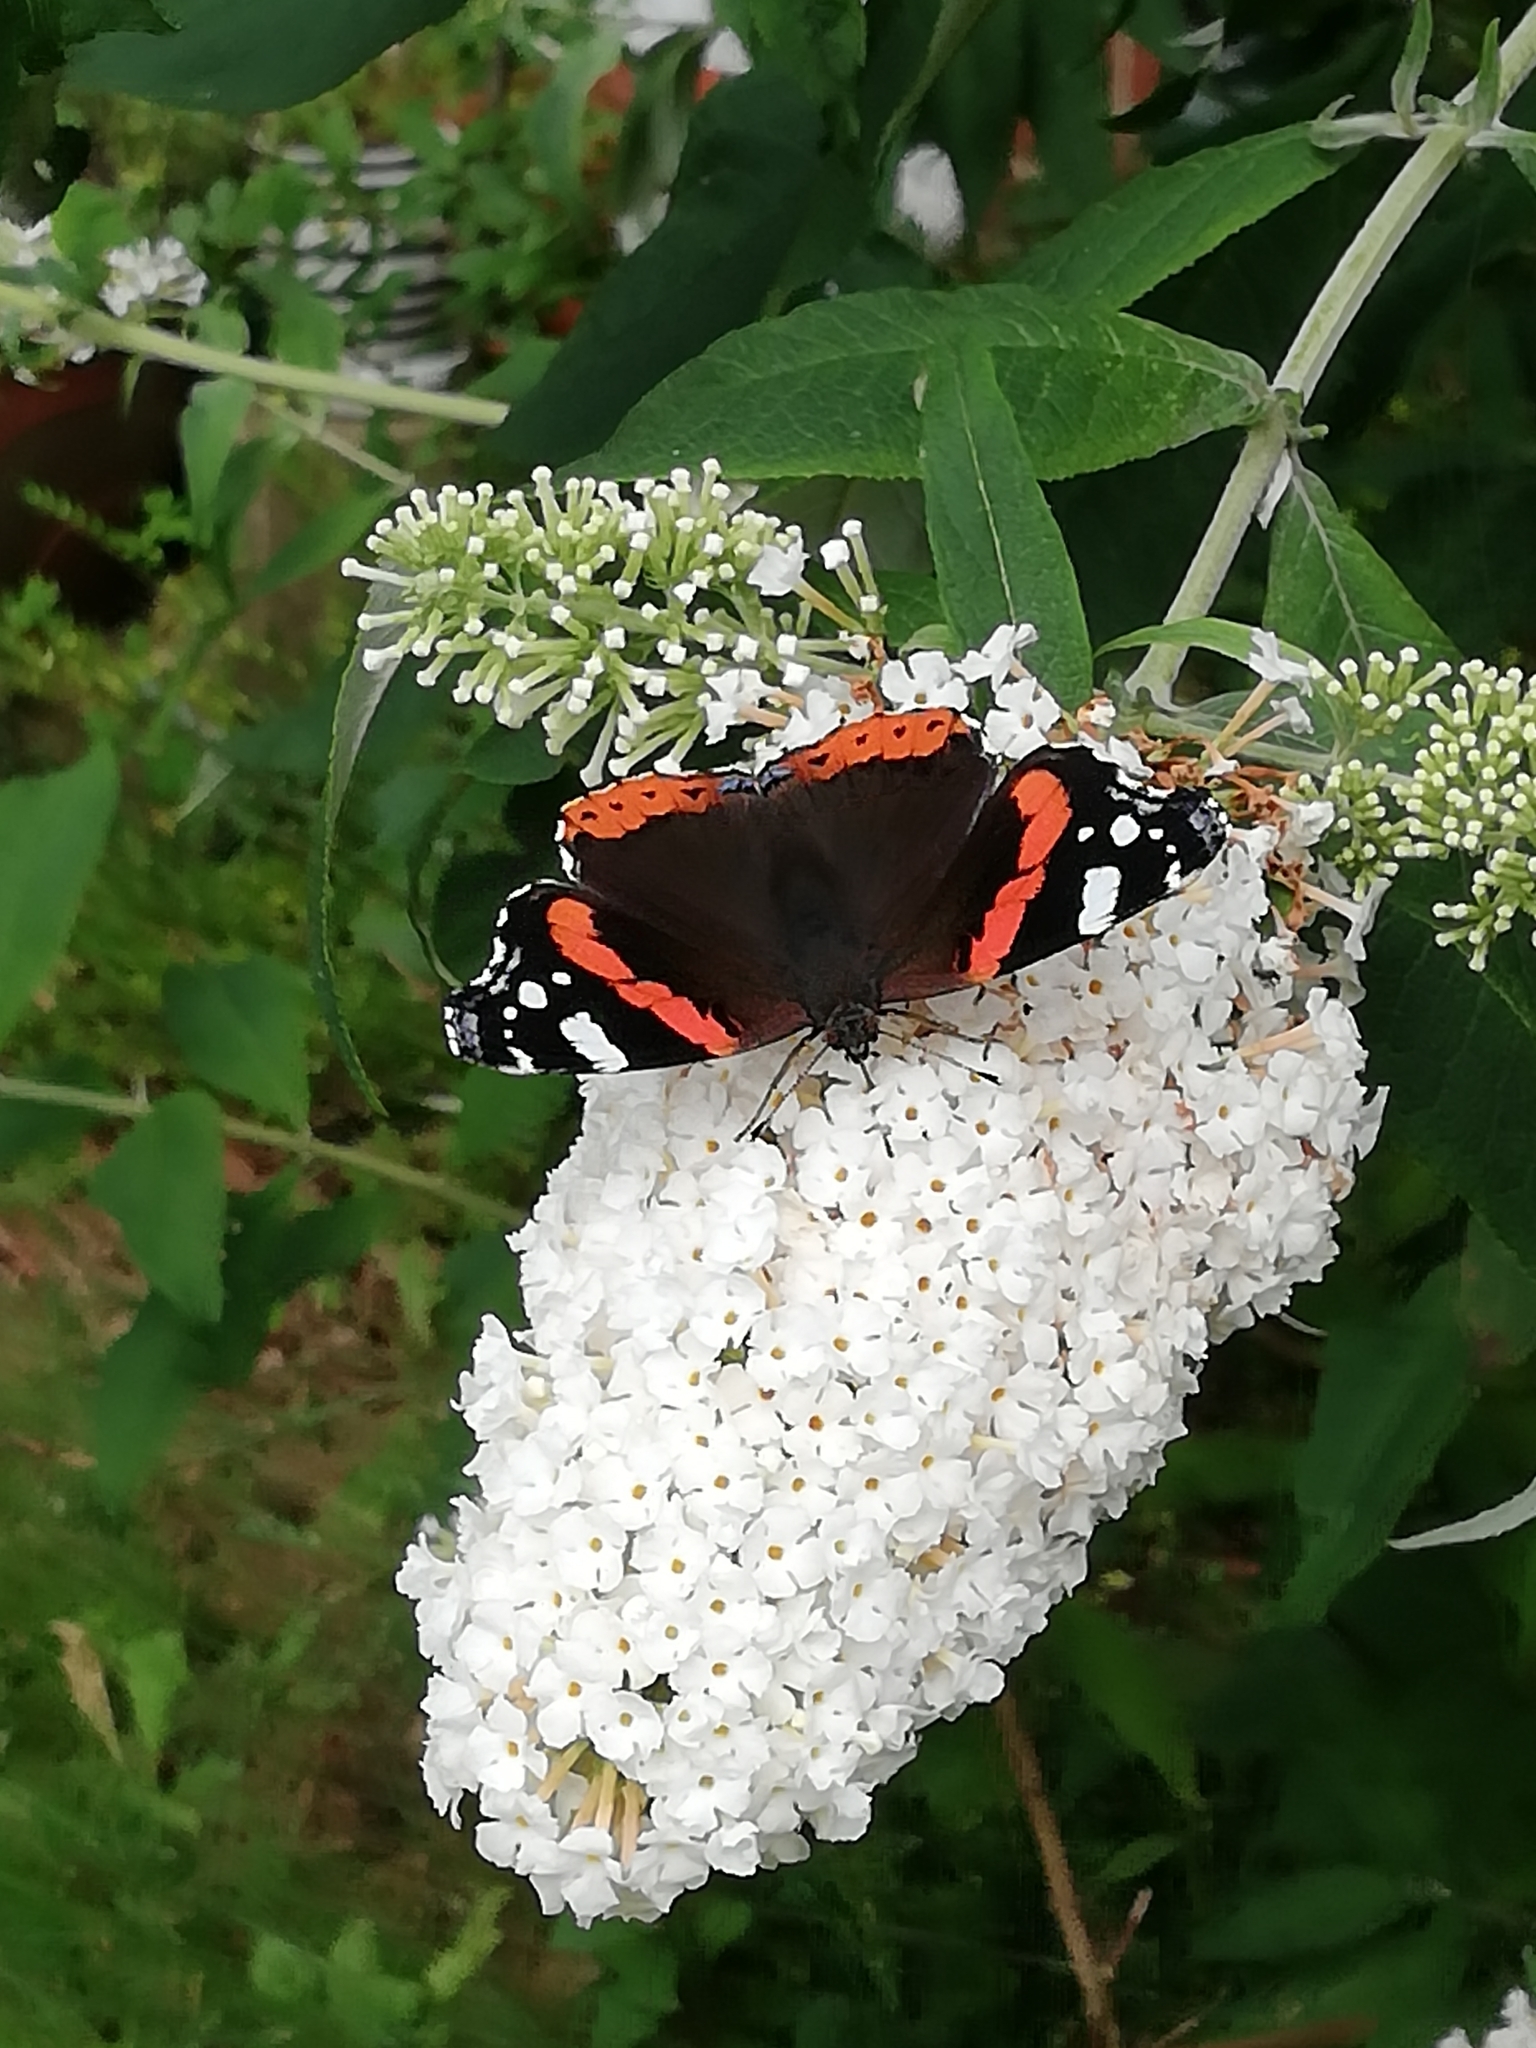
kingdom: Animalia
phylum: Arthropoda
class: Insecta
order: Lepidoptera
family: Nymphalidae
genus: Vanessa
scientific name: Vanessa atalanta
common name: Red admiral
